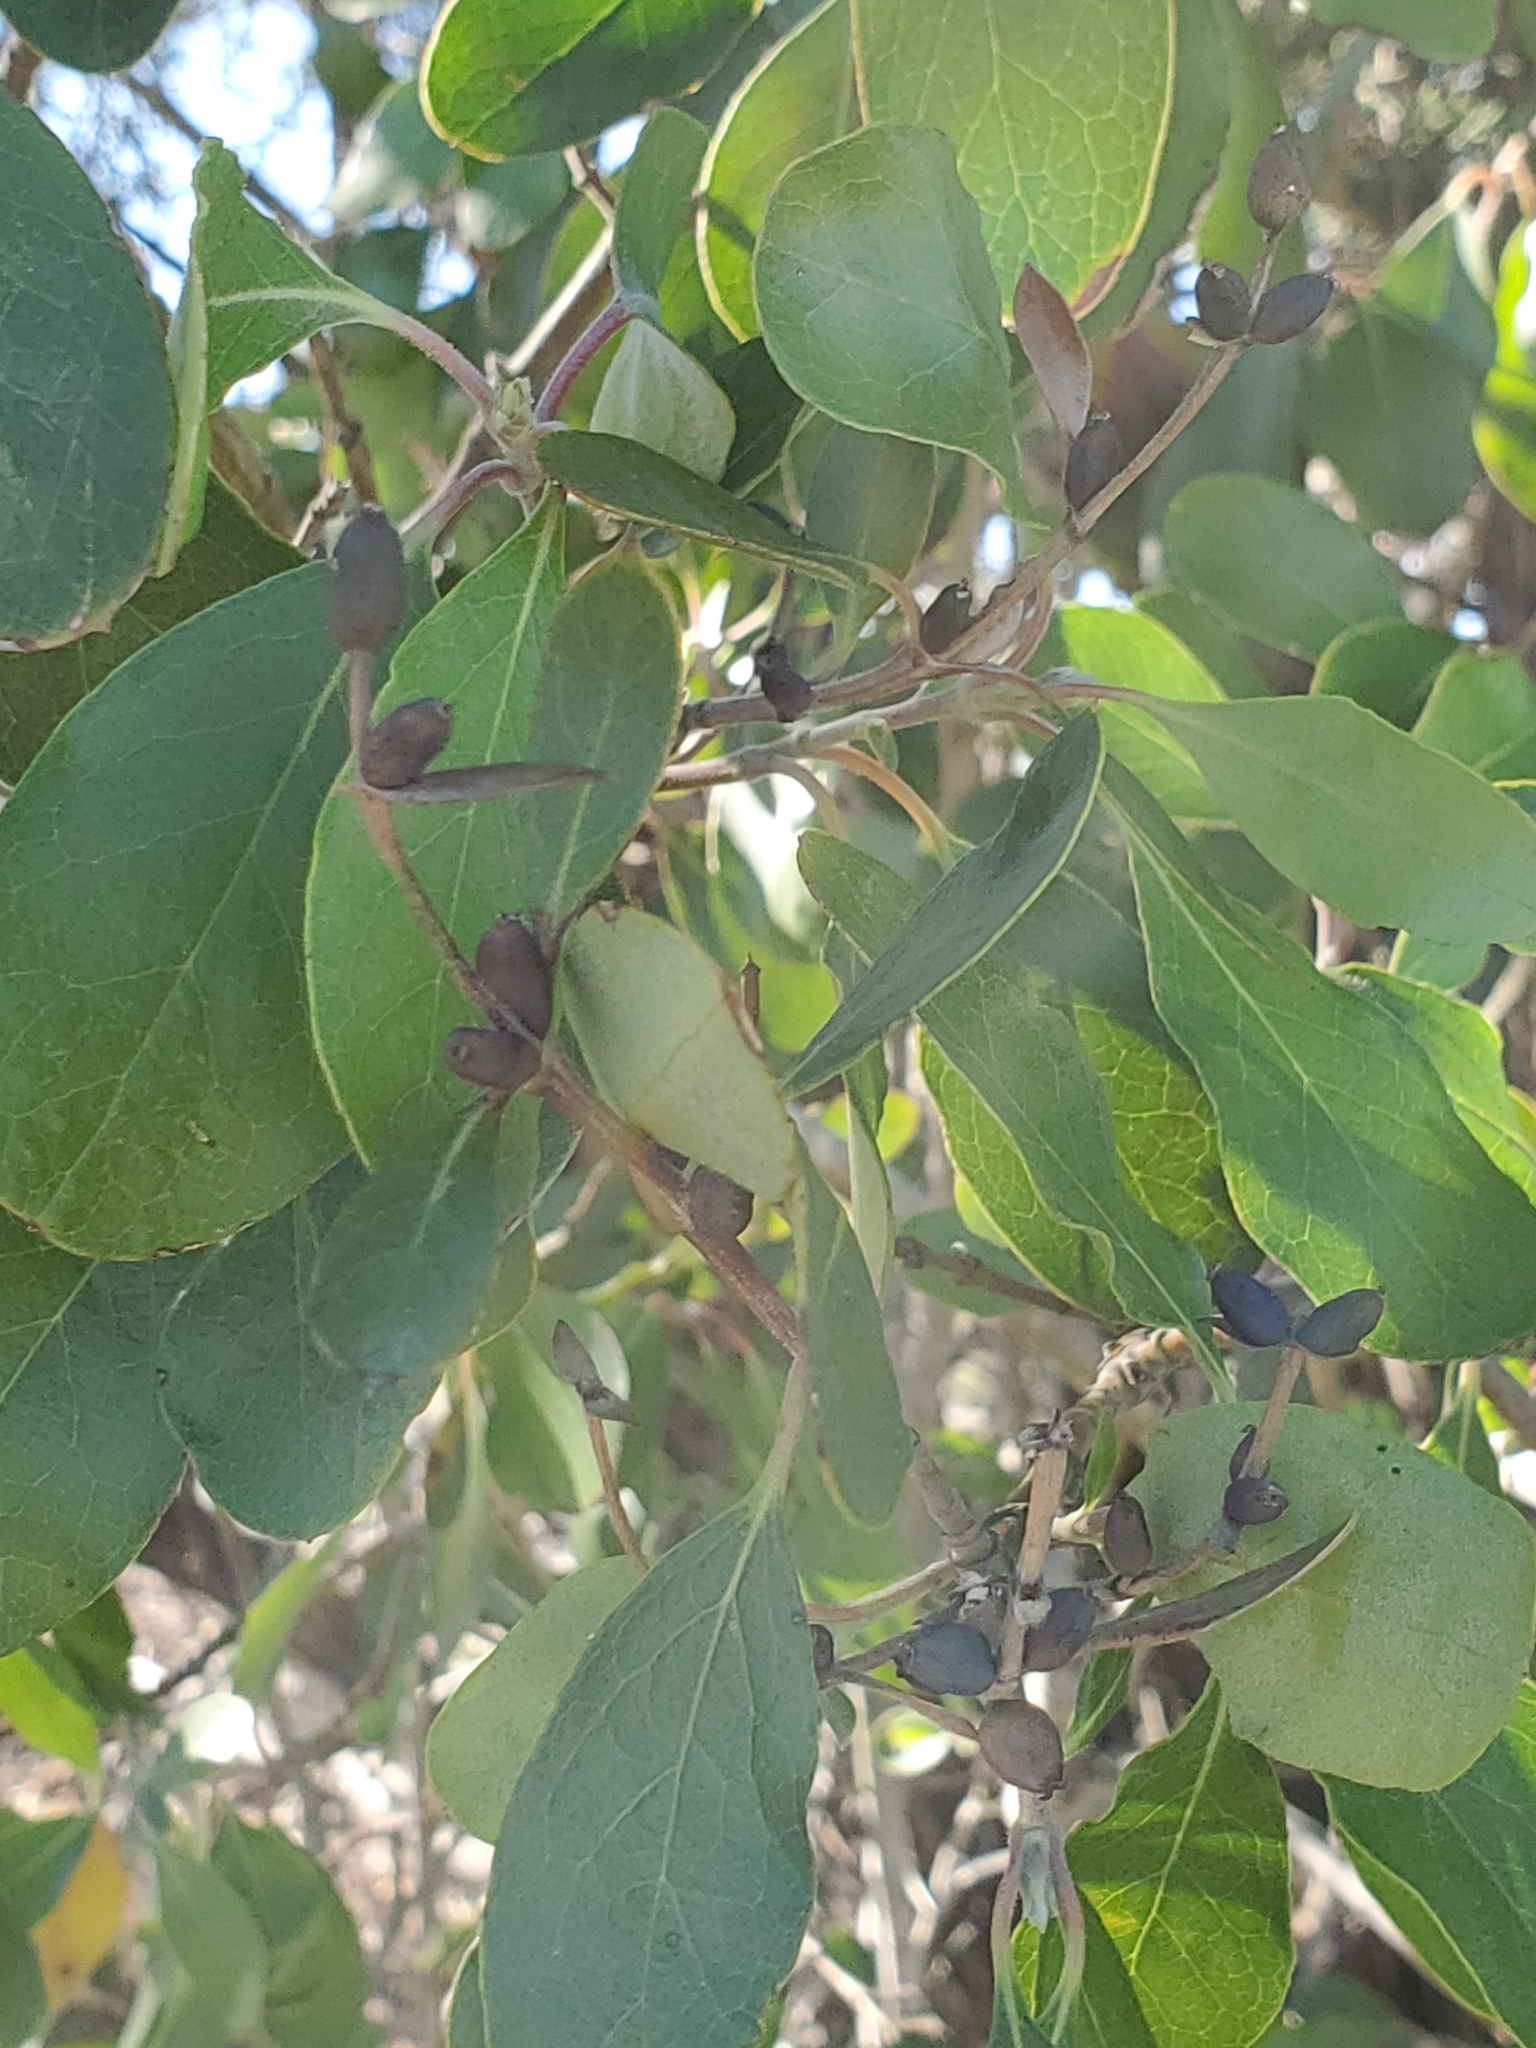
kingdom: Plantae
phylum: Tracheophyta
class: Magnoliopsida
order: Garryales
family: Garryaceae
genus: Garrya
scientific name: Garrya lindheimeri
